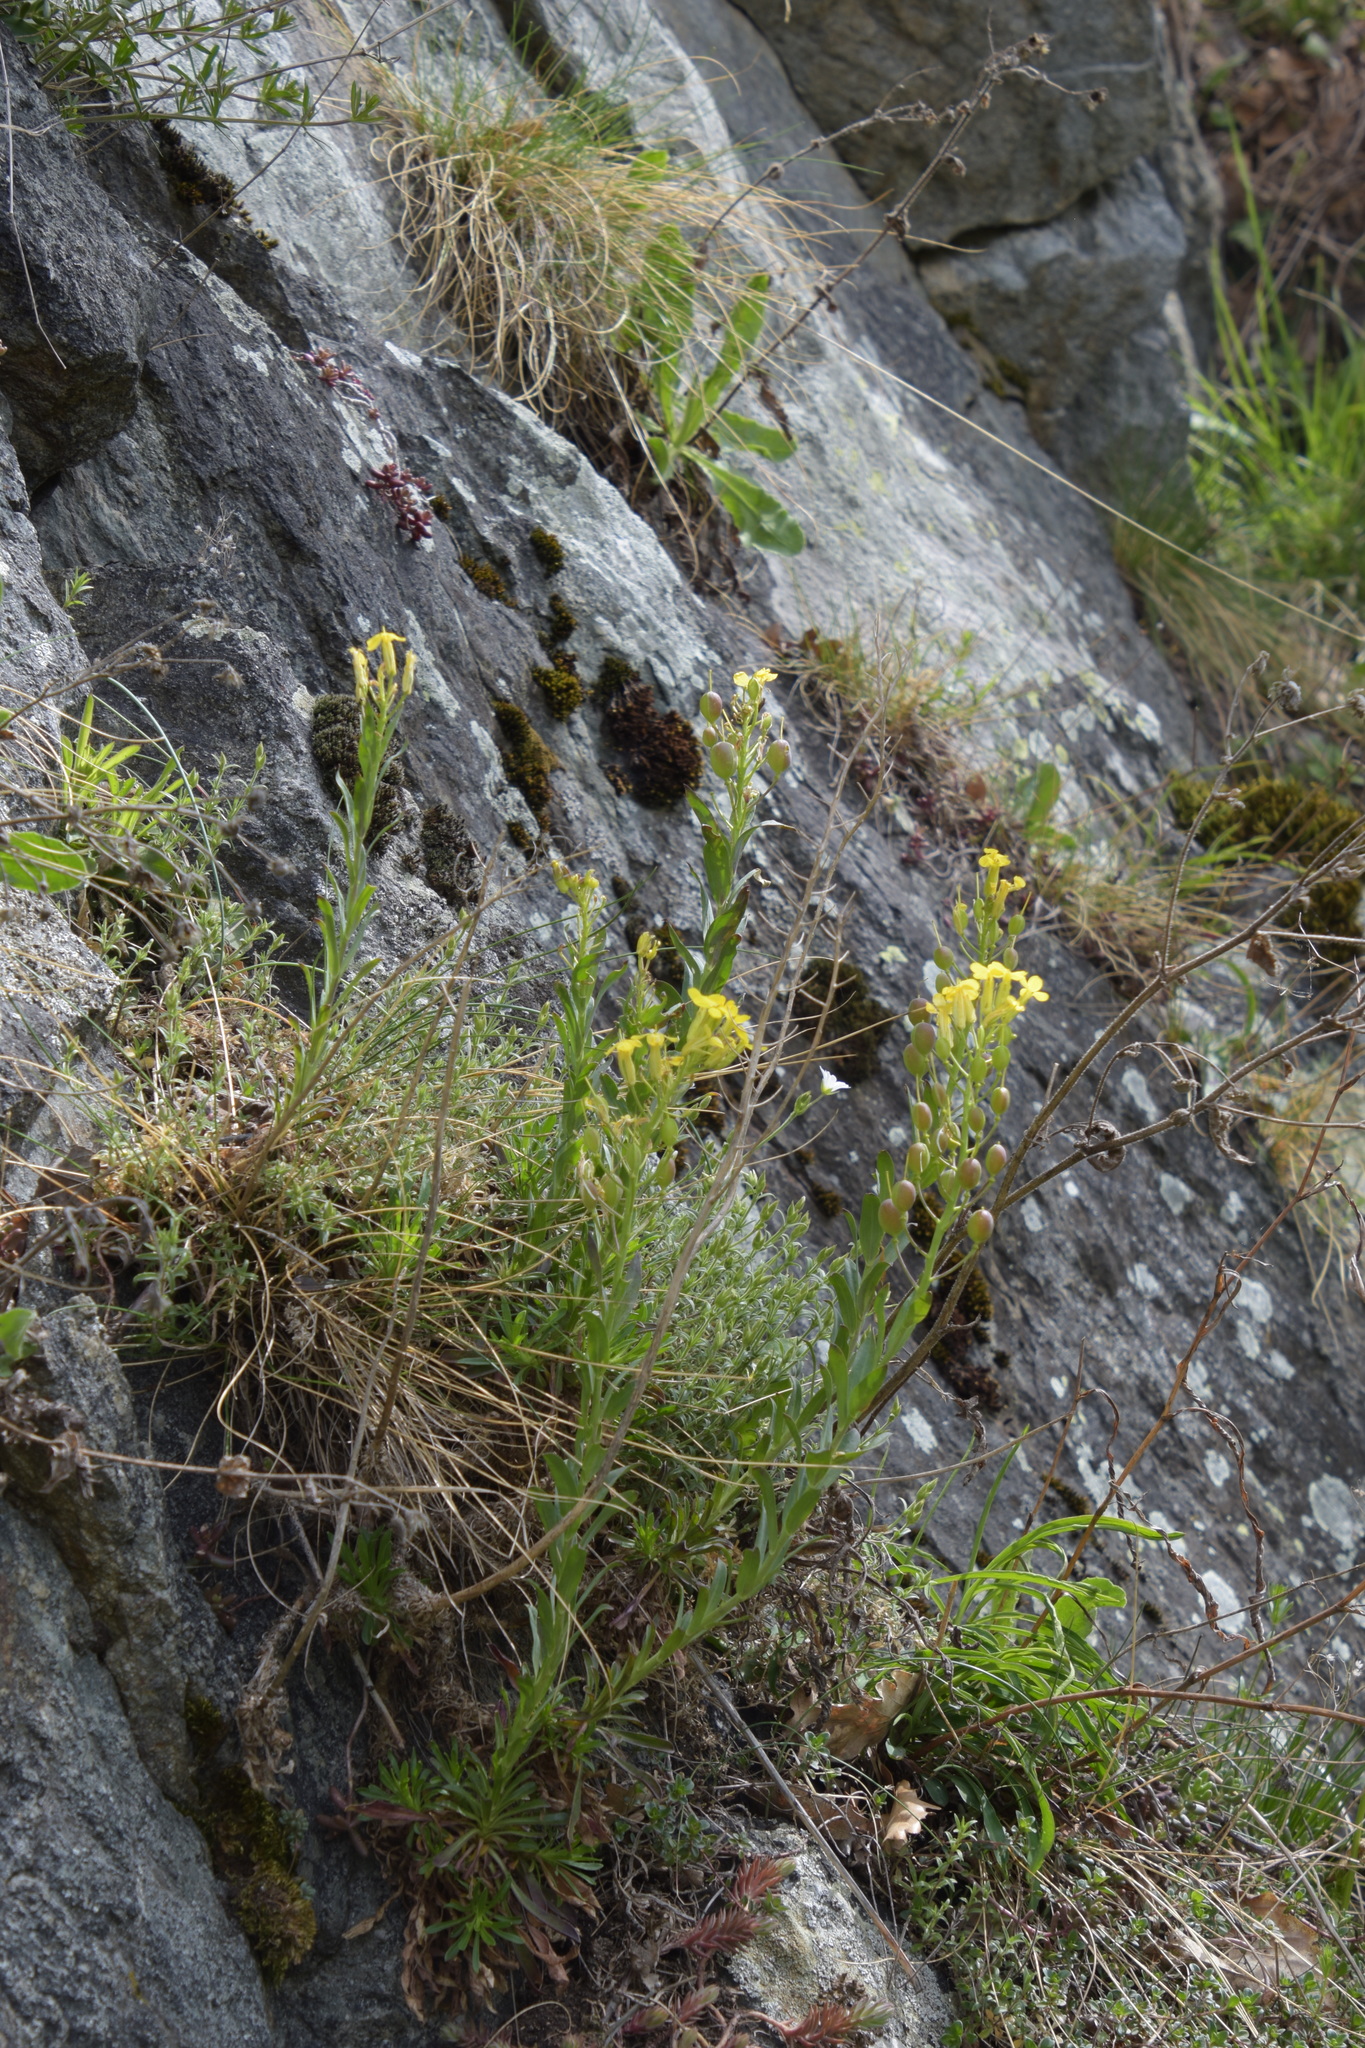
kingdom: Plantae
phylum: Tracheophyta
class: Magnoliopsida
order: Brassicales
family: Brassicaceae
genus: Alyssoides
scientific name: Alyssoides utriculata
